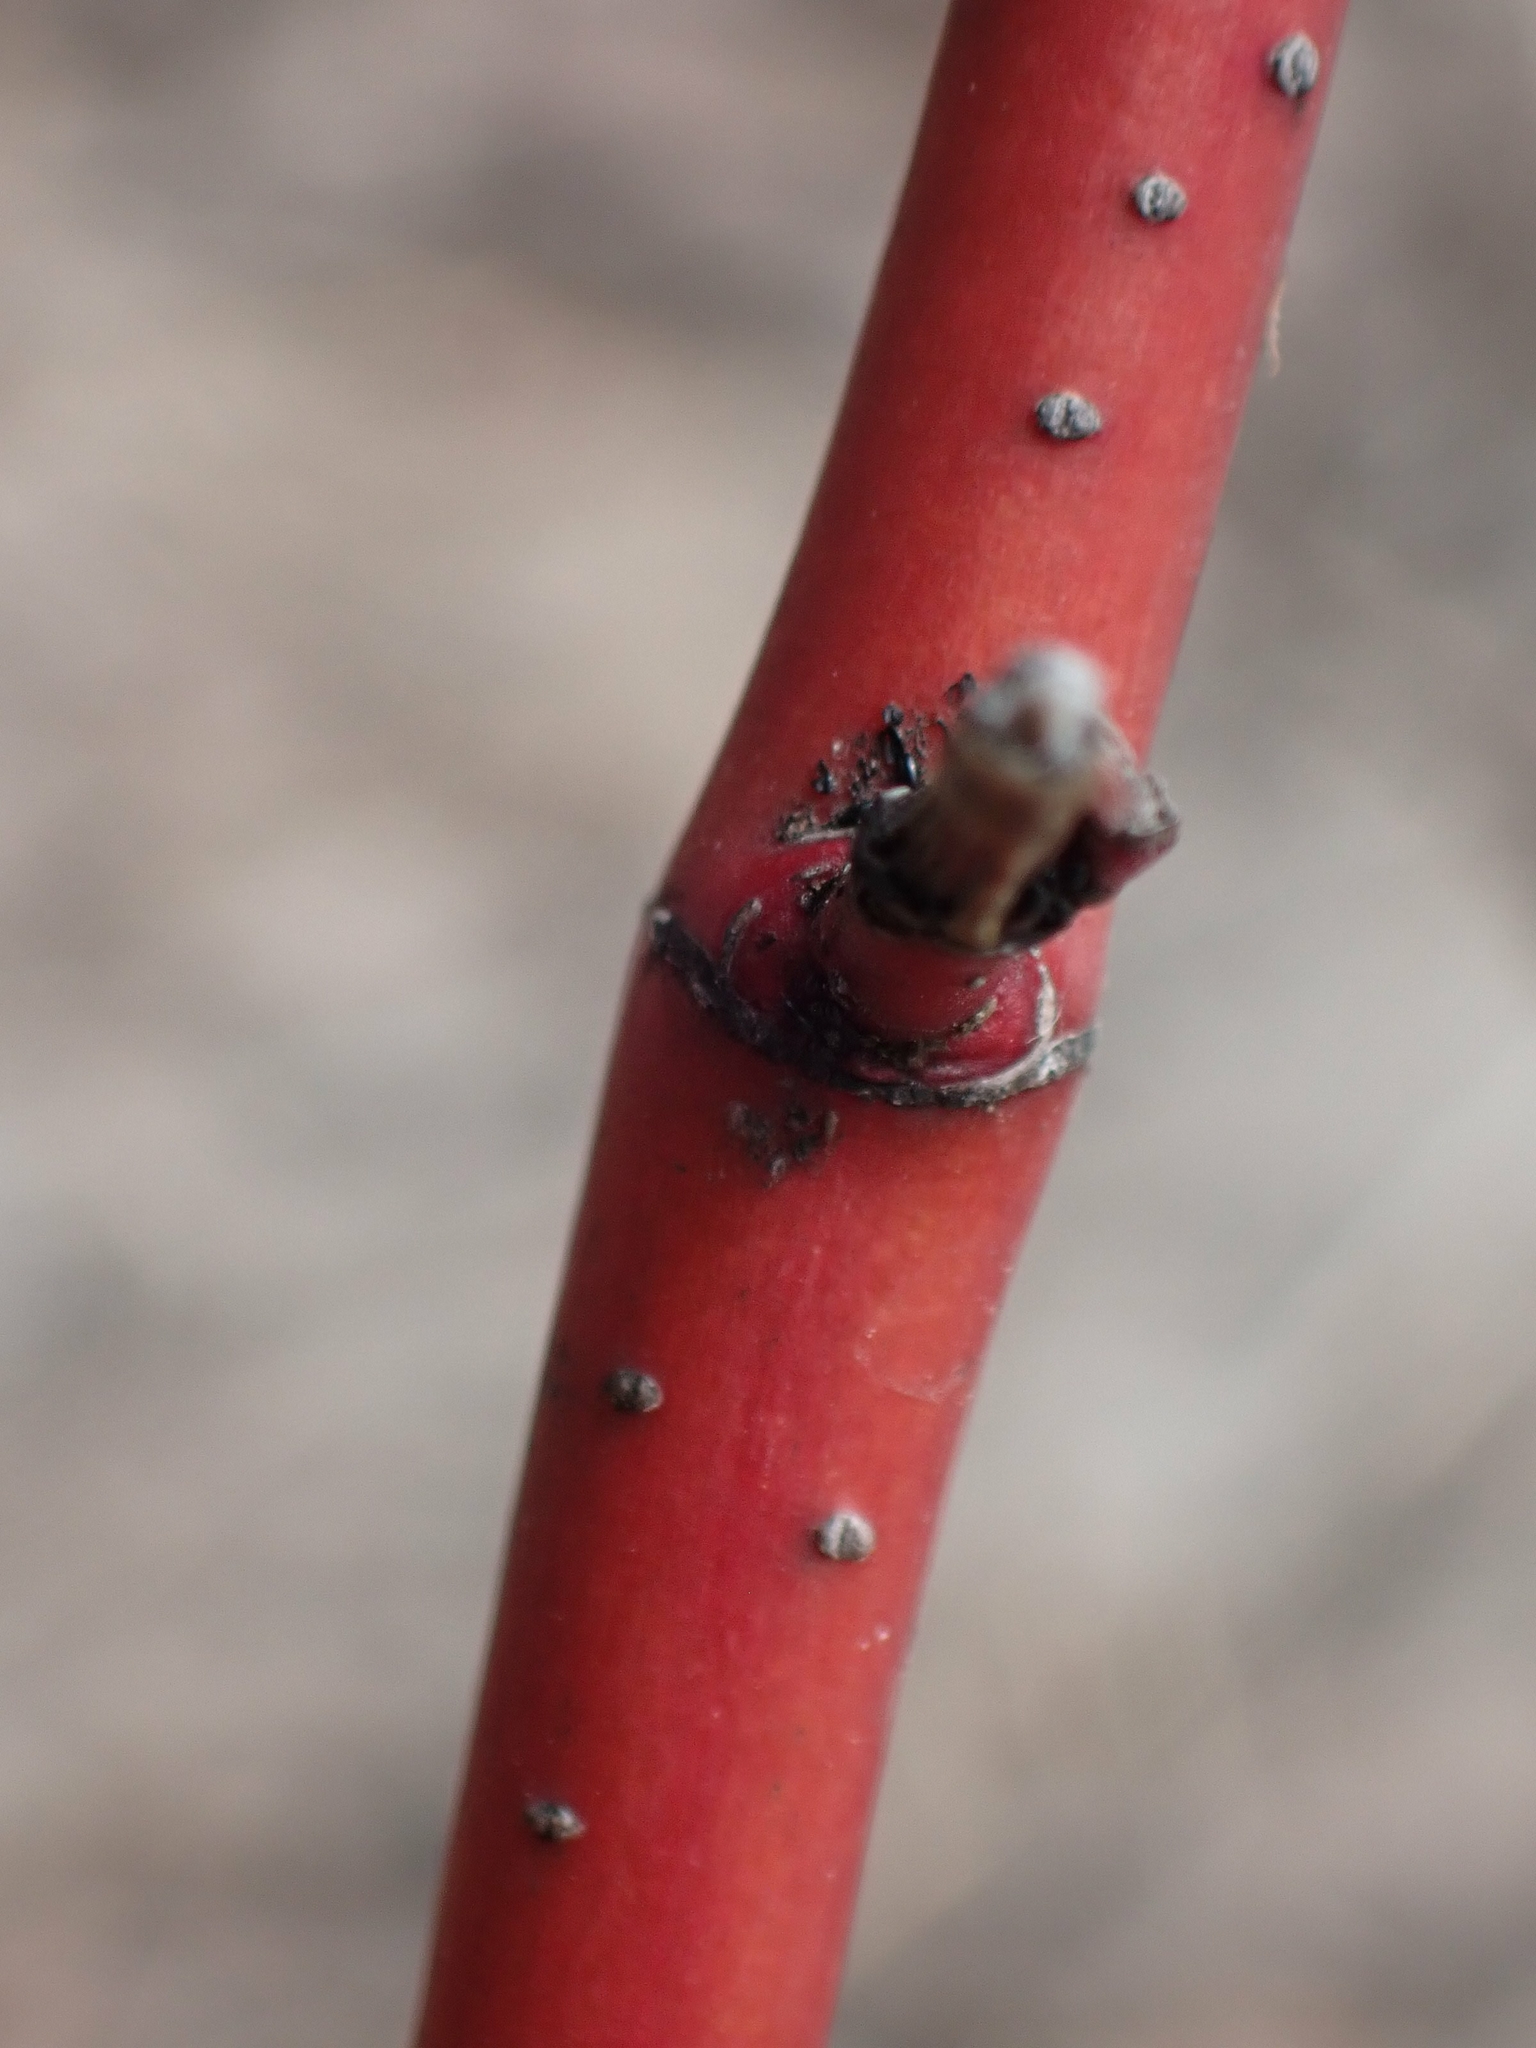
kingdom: Plantae
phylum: Tracheophyta
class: Magnoliopsida
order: Cornales
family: Cornaceae
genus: Cornus
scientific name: Cornus sericea
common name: Red-osier dogwood
